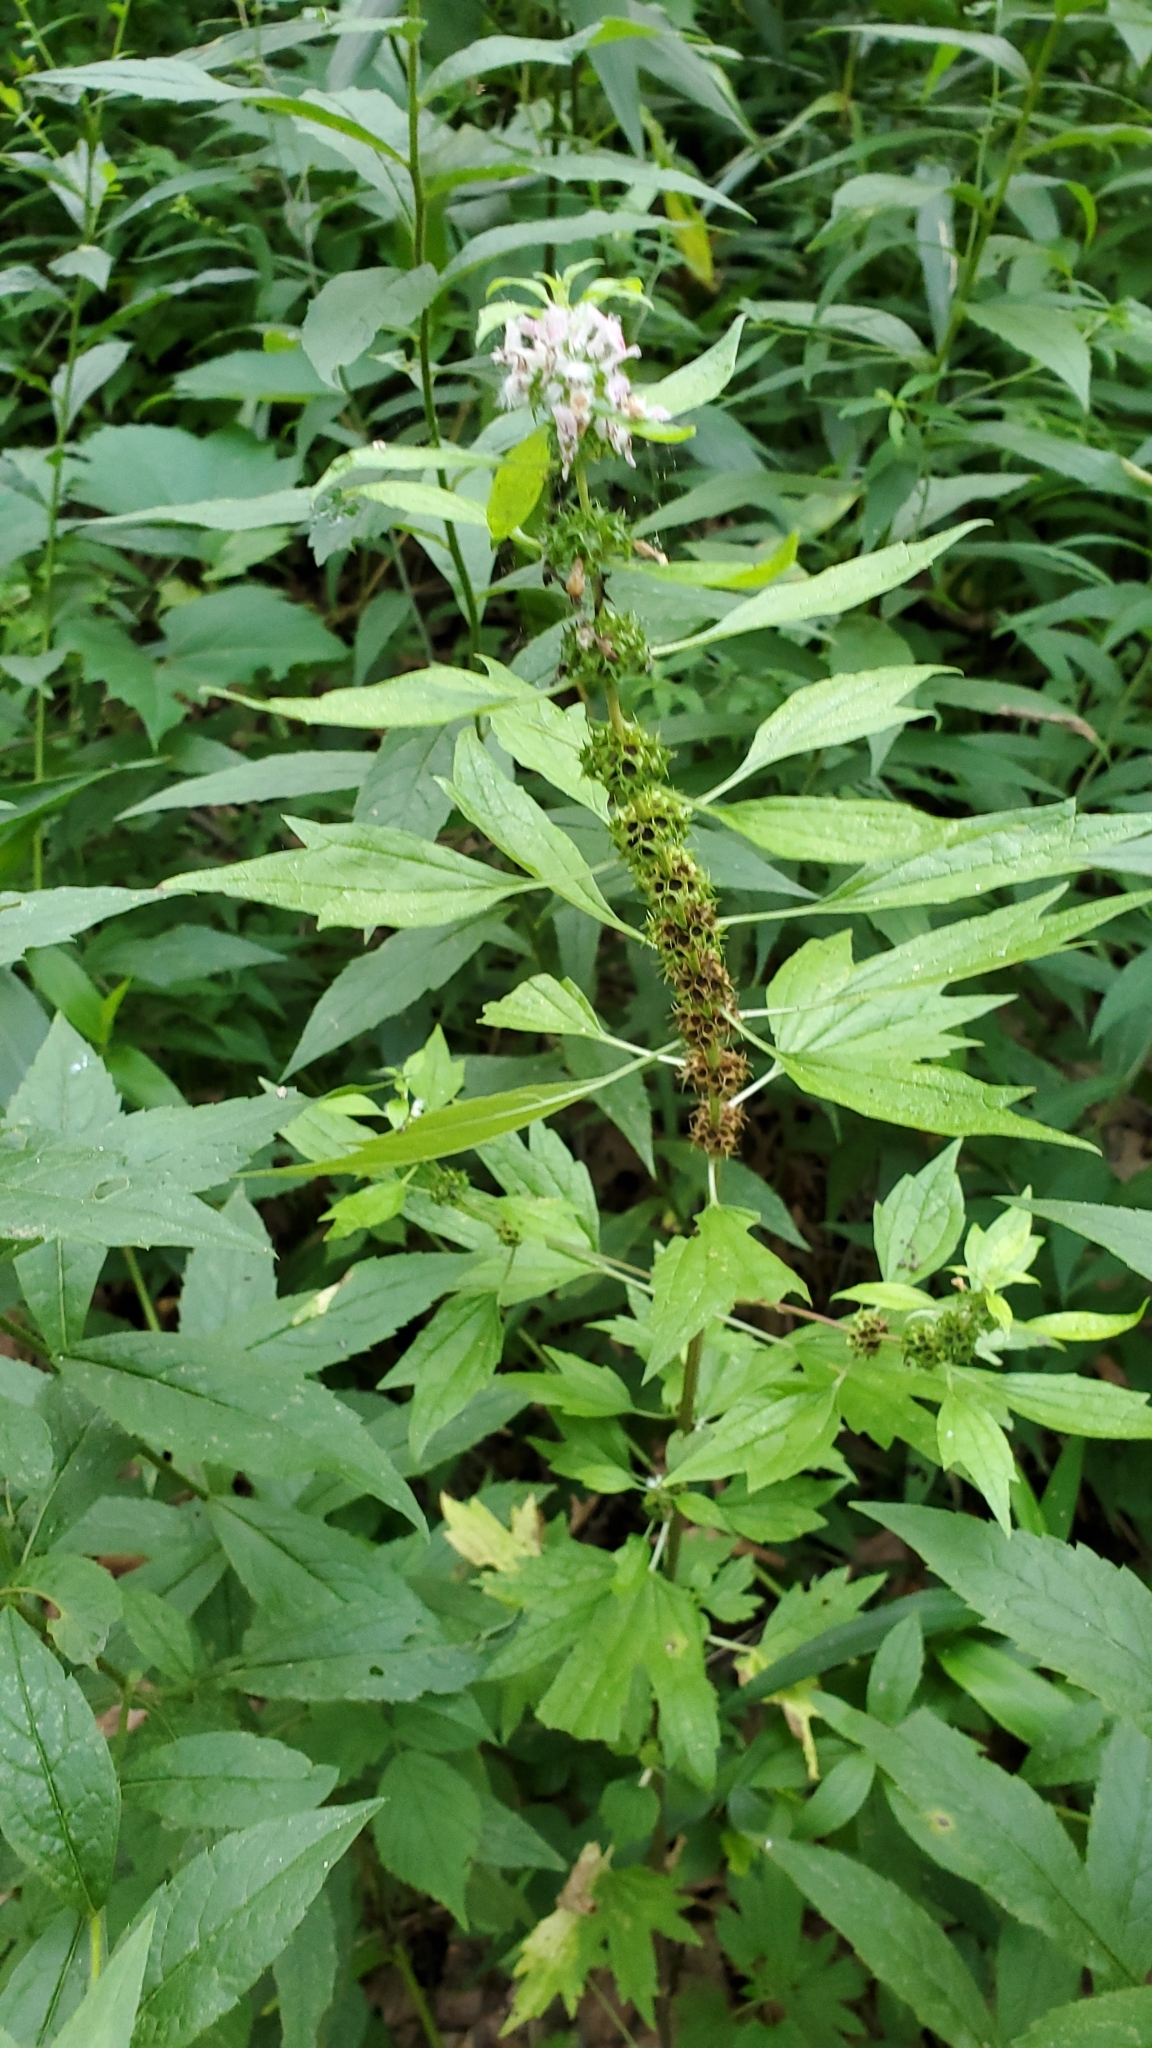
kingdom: Plantae
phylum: Tracheophyta
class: Magnoliopsida
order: Lamiales
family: Lamiaceae
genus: Leonurus
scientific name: Leonurus cardiaca
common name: Motherwort
